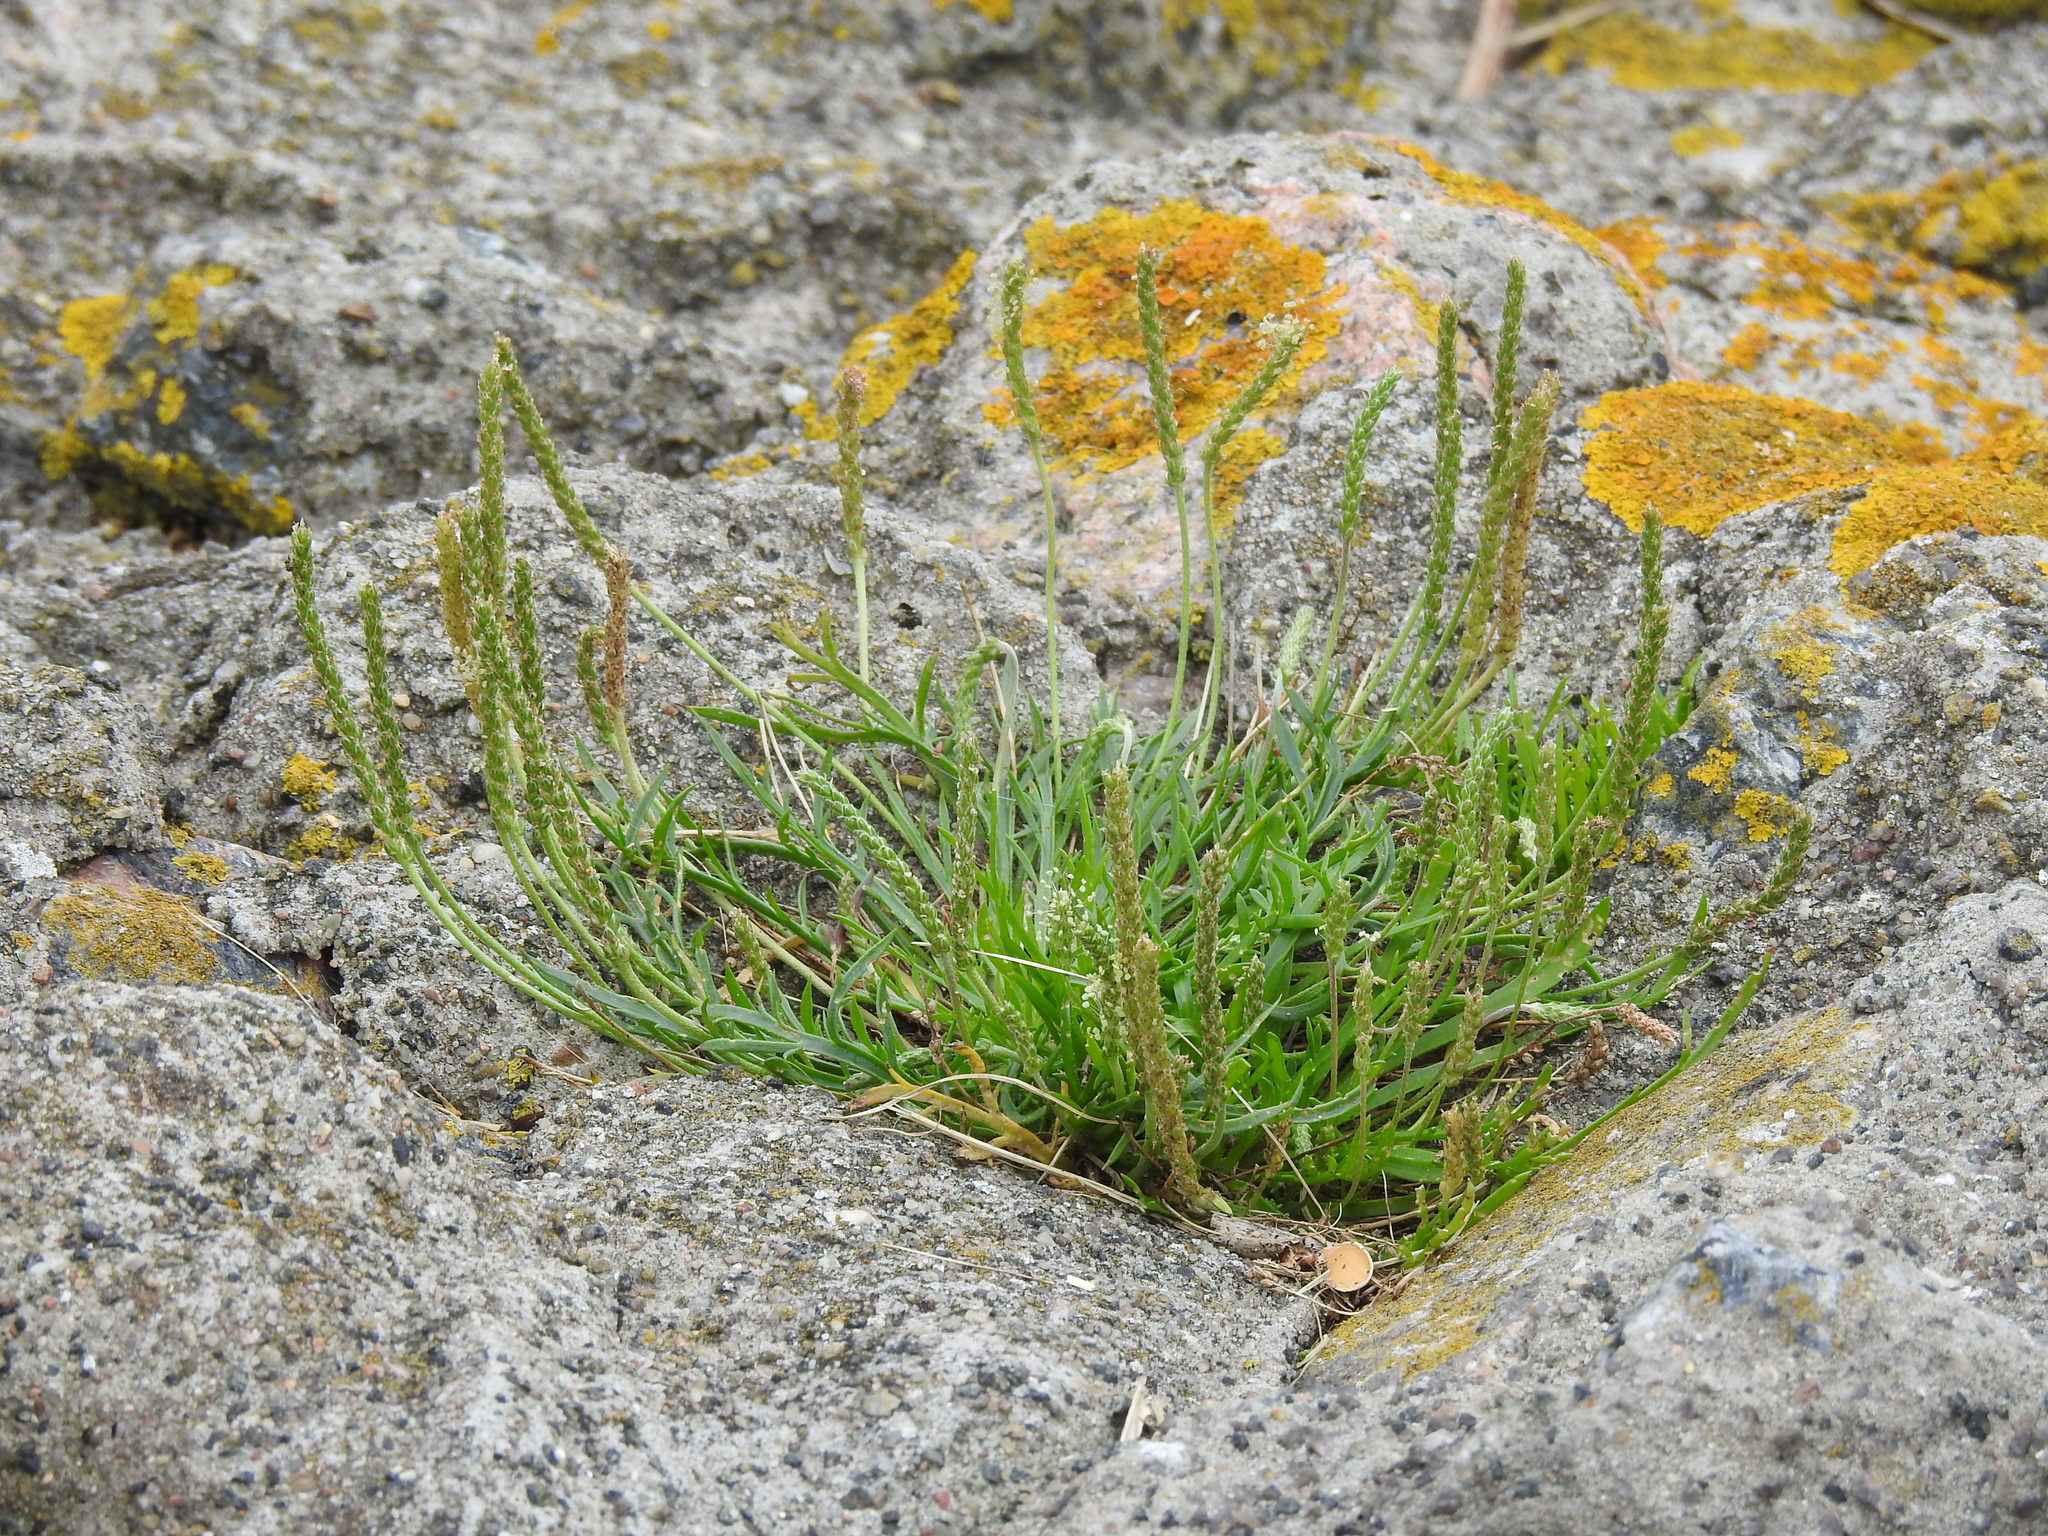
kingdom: Plantae
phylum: Tracheophyta
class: Magnoliopsida
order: Lamiales
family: Plantaginaceae
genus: Plantago
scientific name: Plantago coronopus
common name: Buck's-horn plantain
